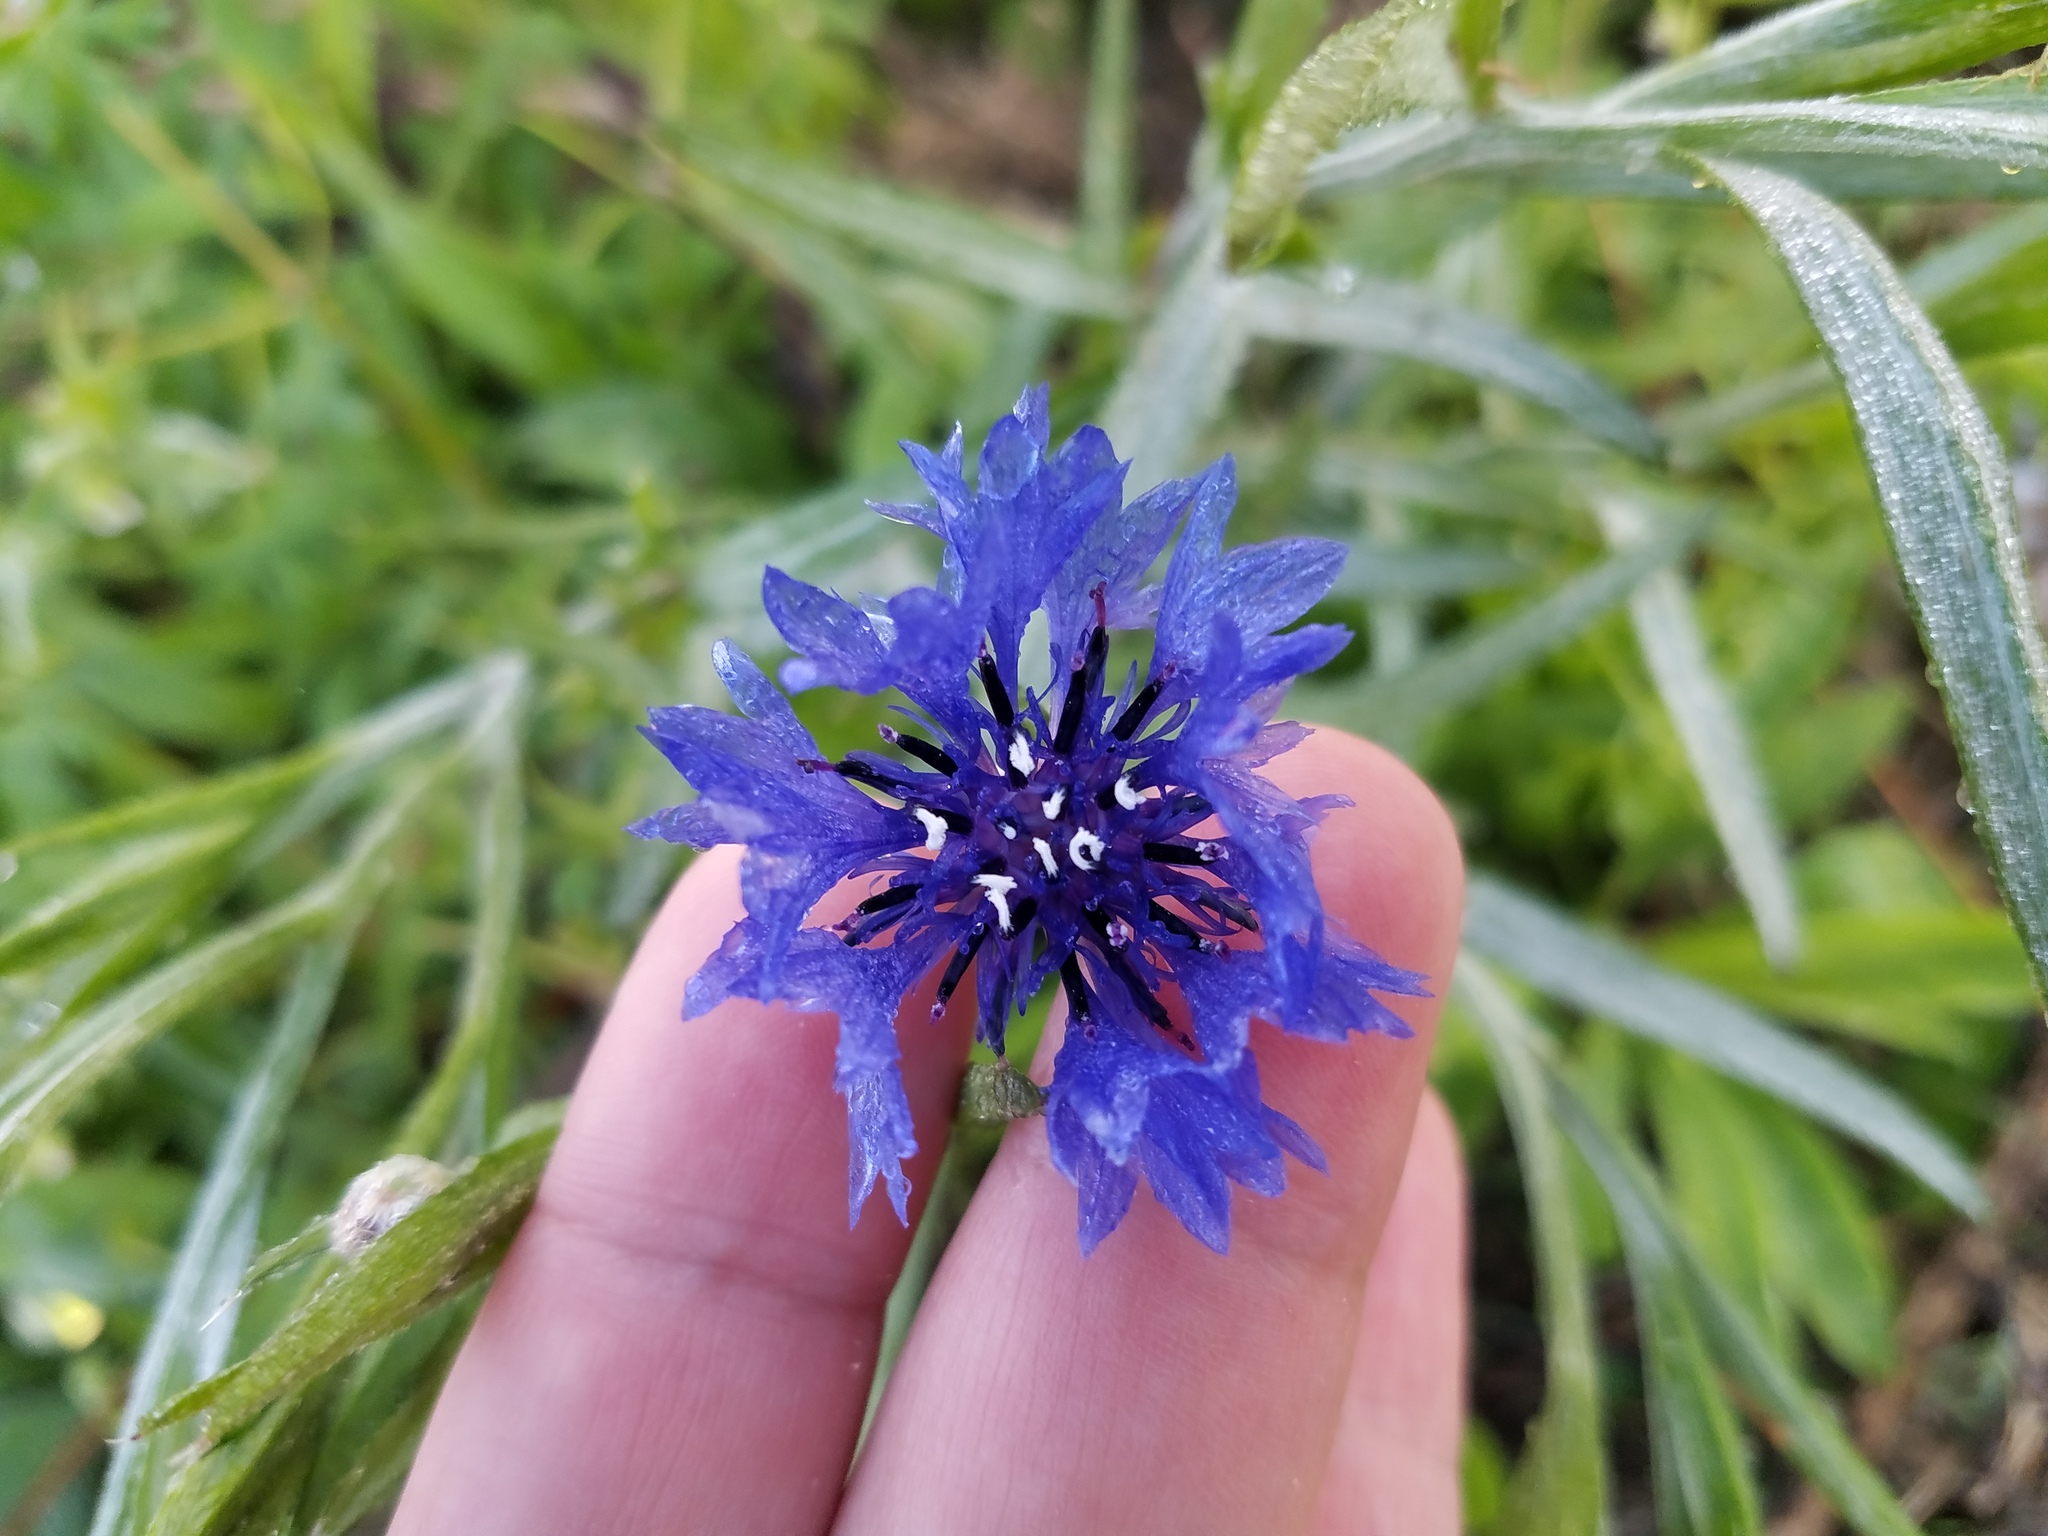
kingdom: Plantae
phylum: Tracheophyta
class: Magnoliopsida
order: Asterales
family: Asteraceae
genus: Centaurea
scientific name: Centaurea cyanus
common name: Cornflower
